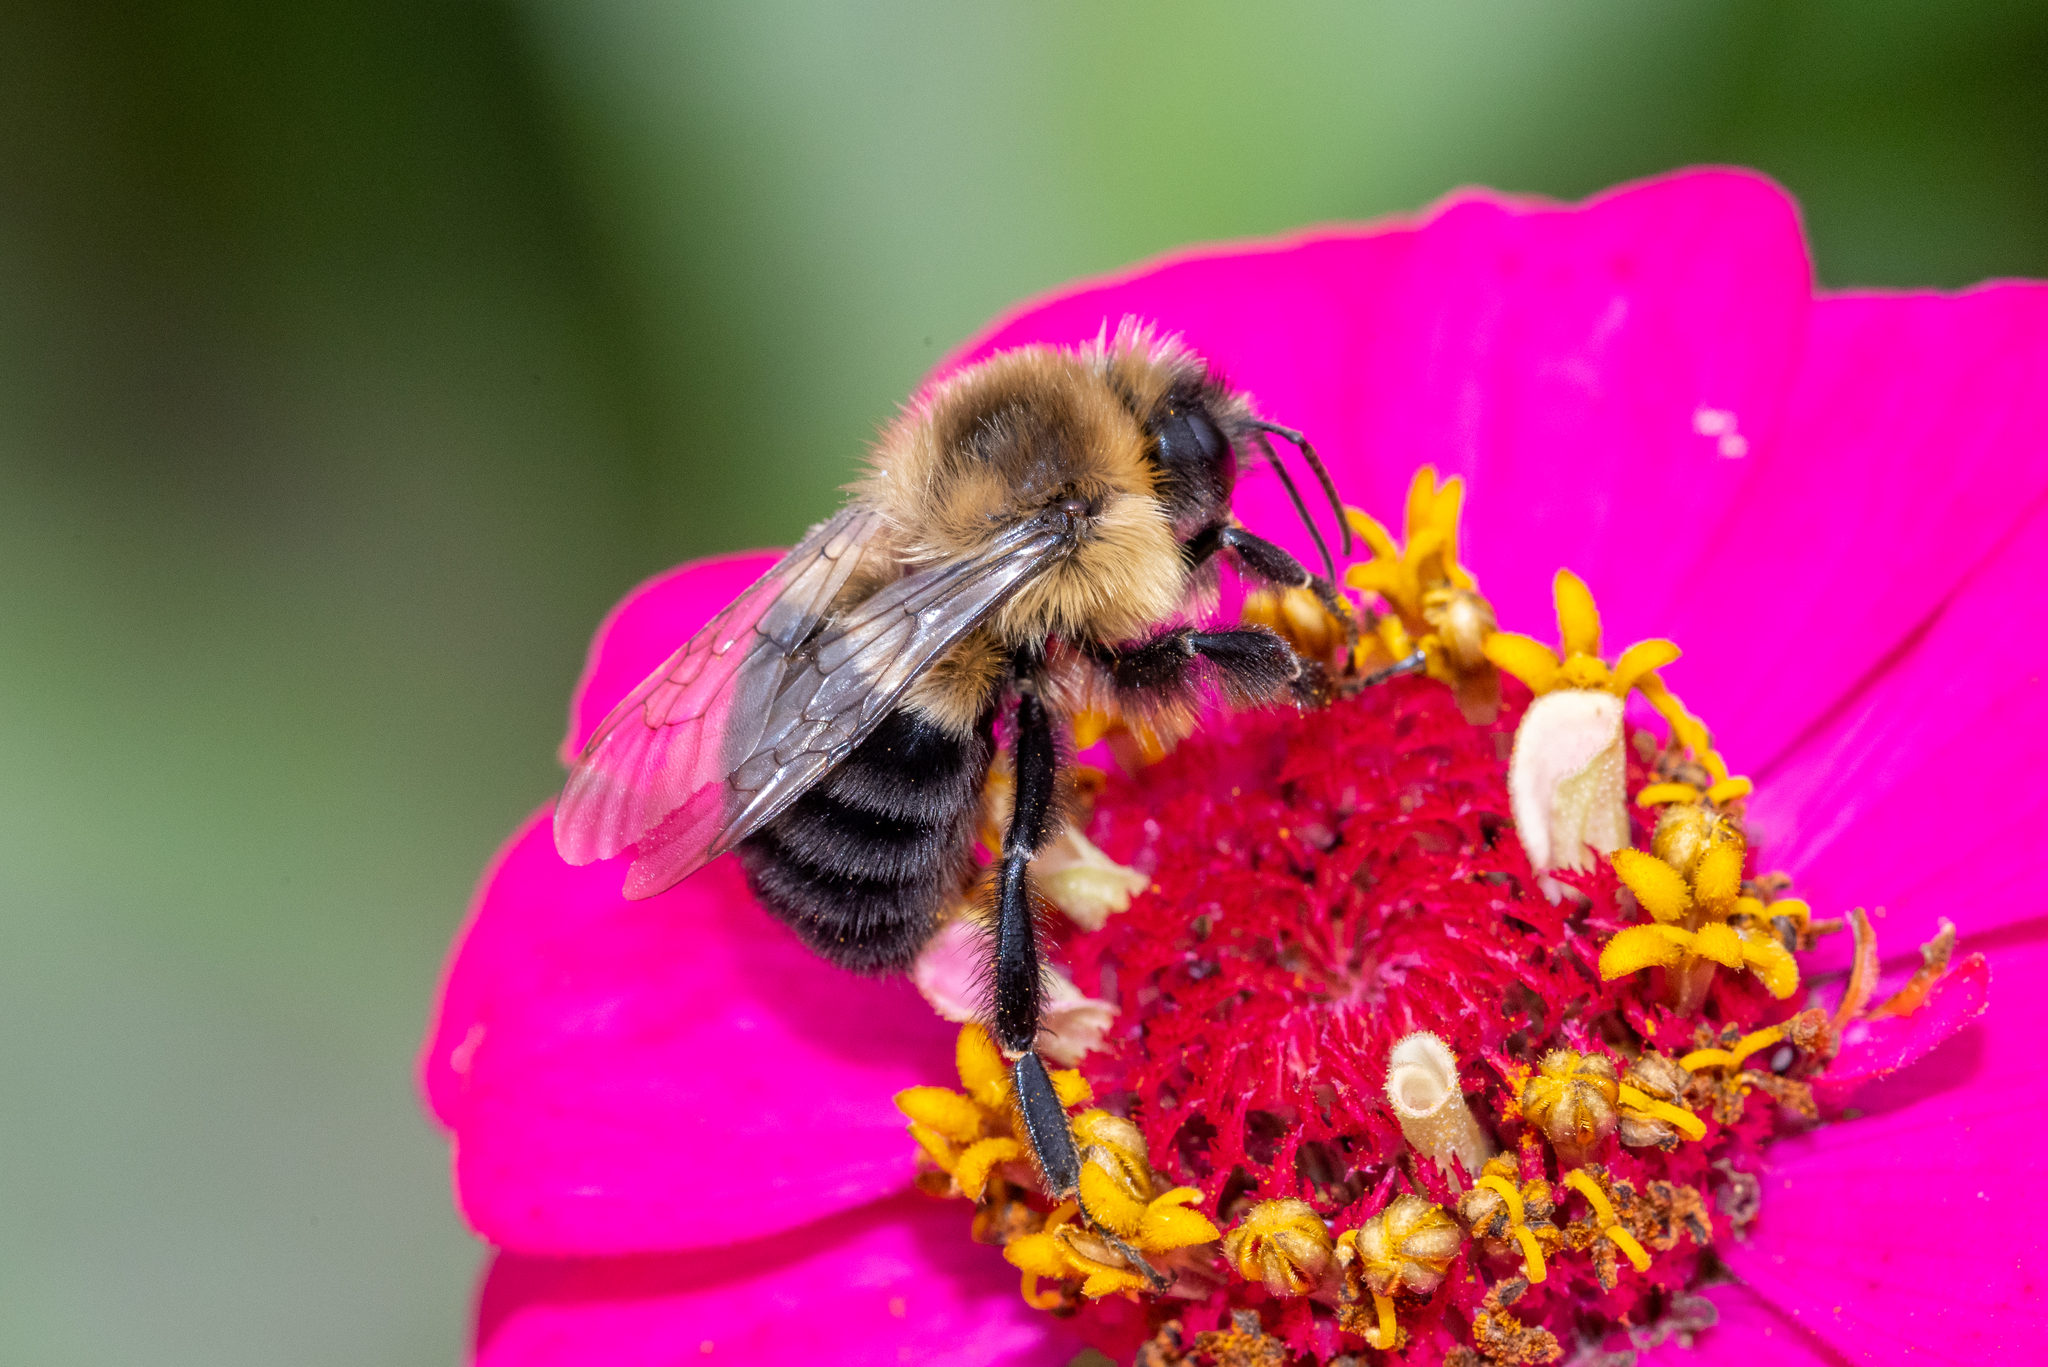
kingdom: Animalia
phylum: Arthropoda
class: Insecta
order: Hymenoptera
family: Apidae
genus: Bombus
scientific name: Bombus impatiens
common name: Common eastern bumble bee
